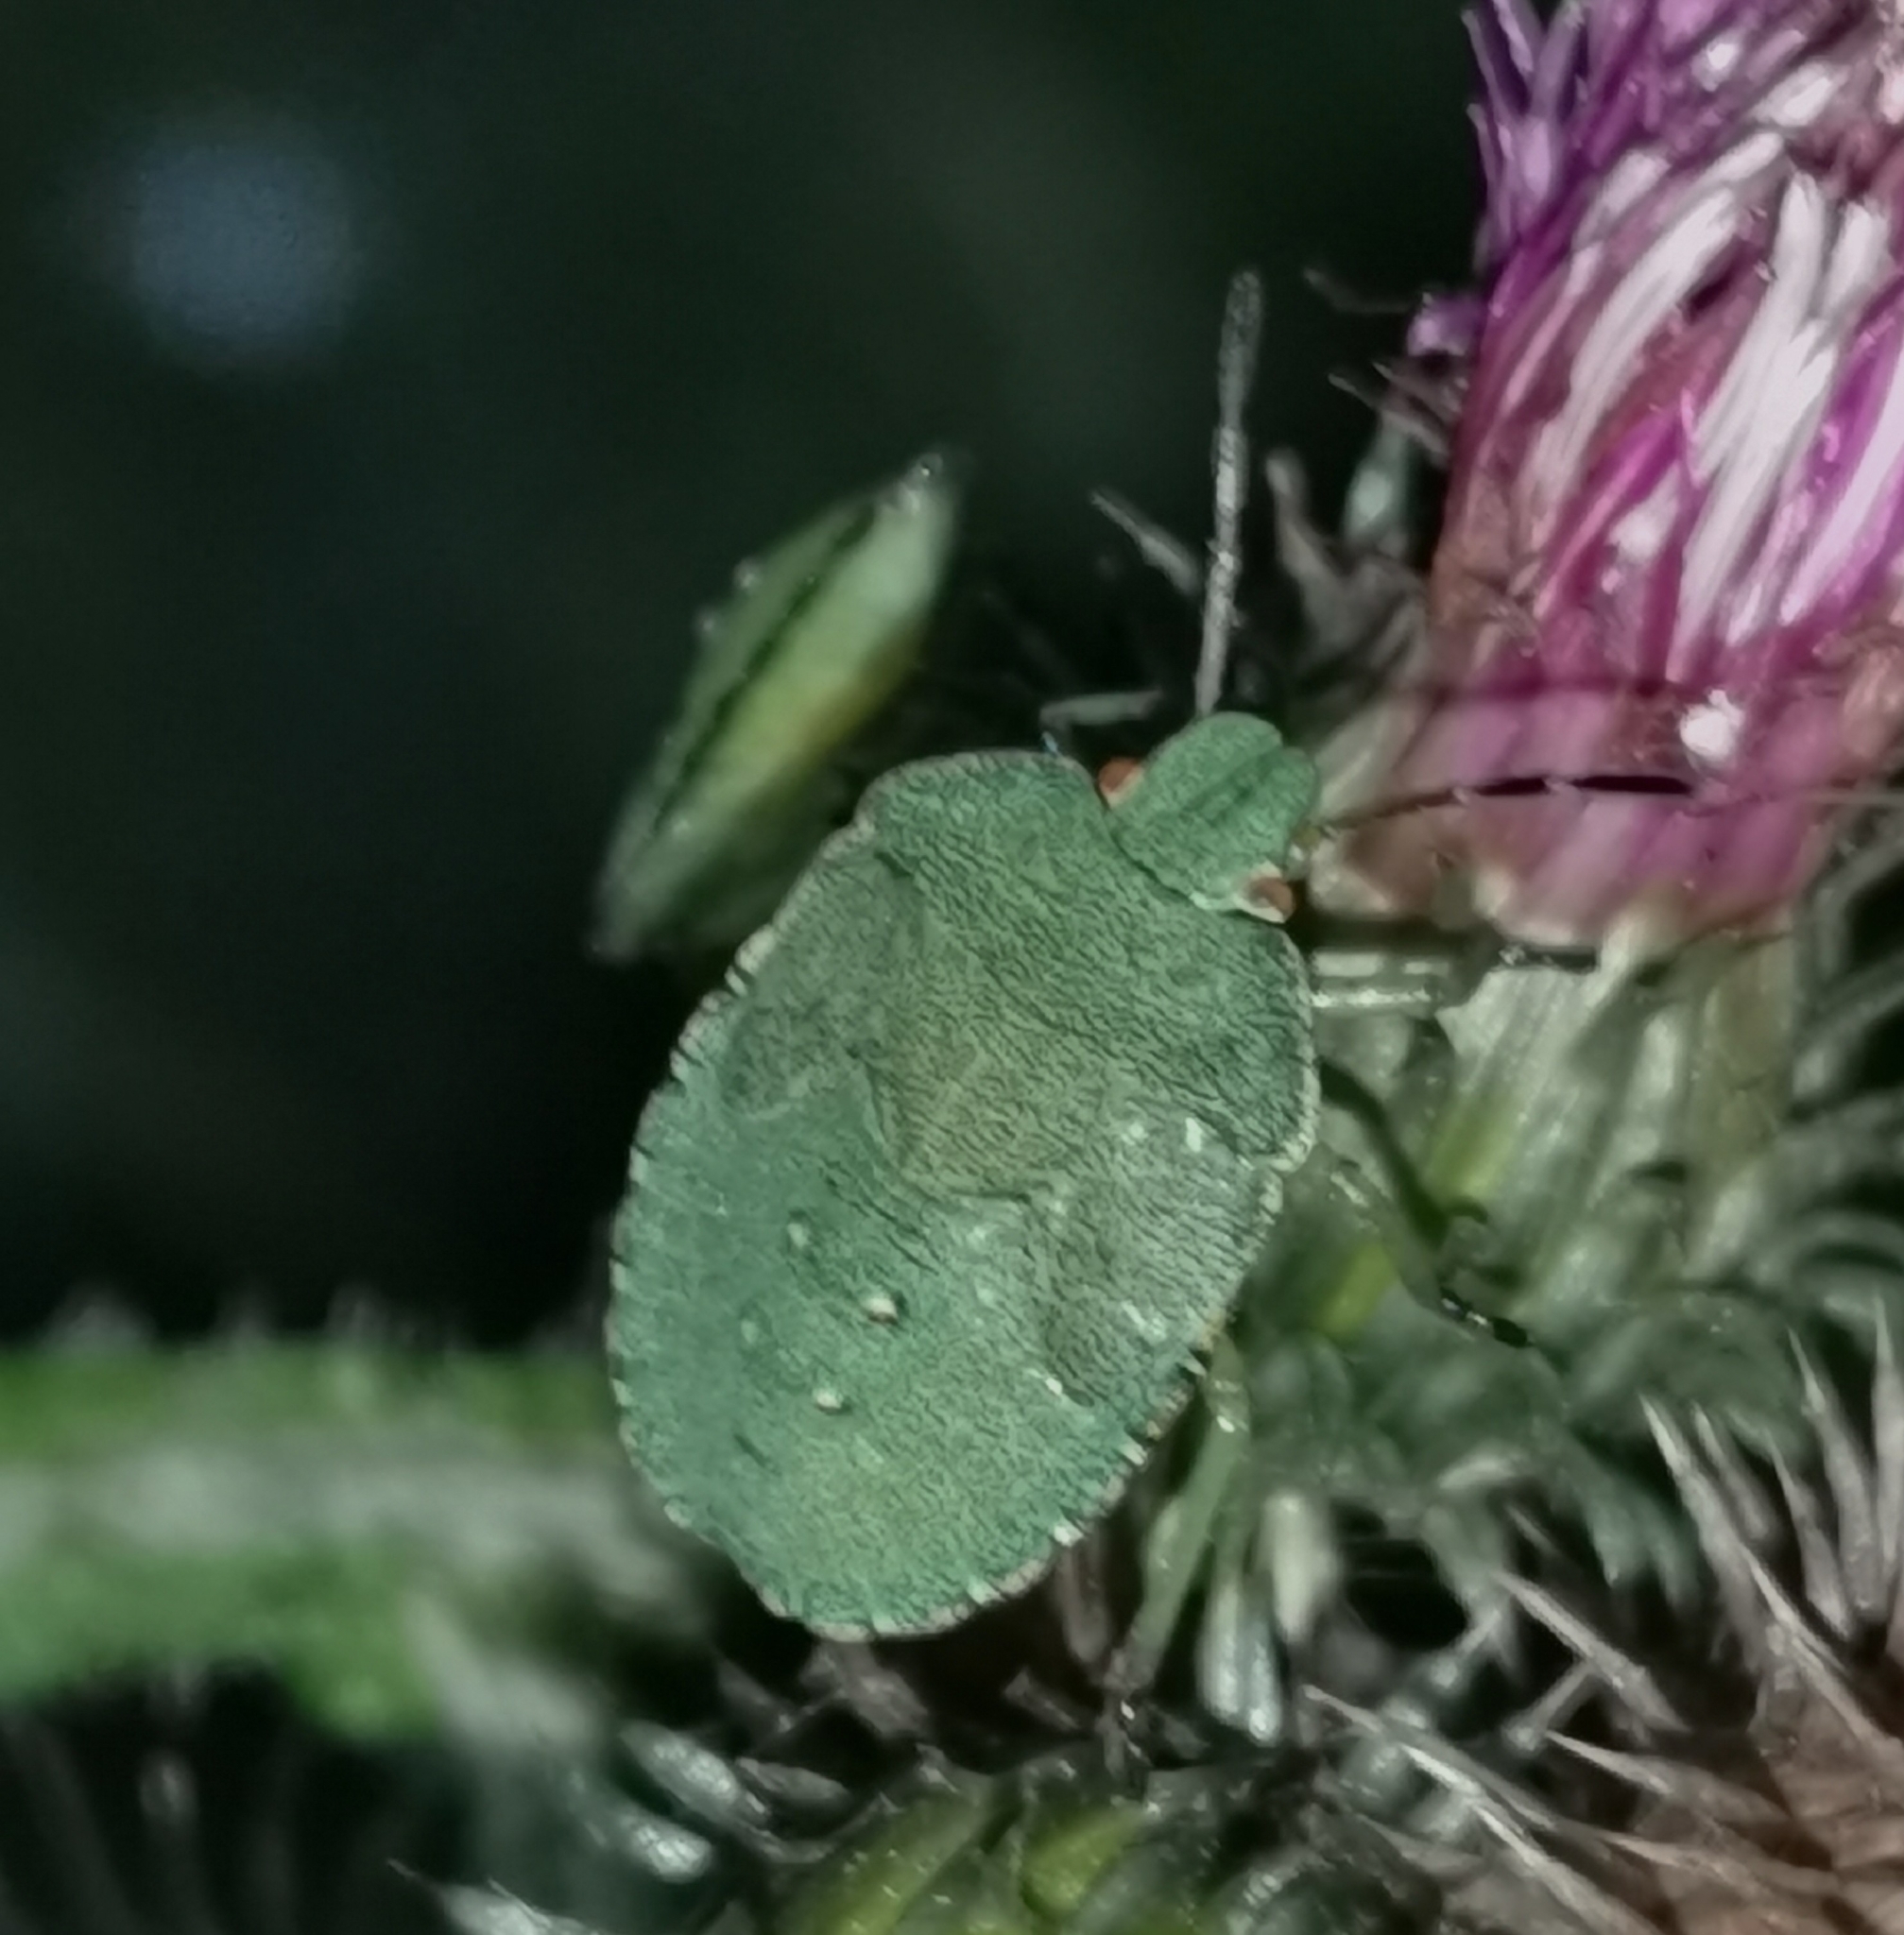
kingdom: Animalia
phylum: Arthropoda
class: Insecta
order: Hemiptera
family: Pentatomidae
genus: Palomena
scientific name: Palomena prasina
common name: Green shieldbug
